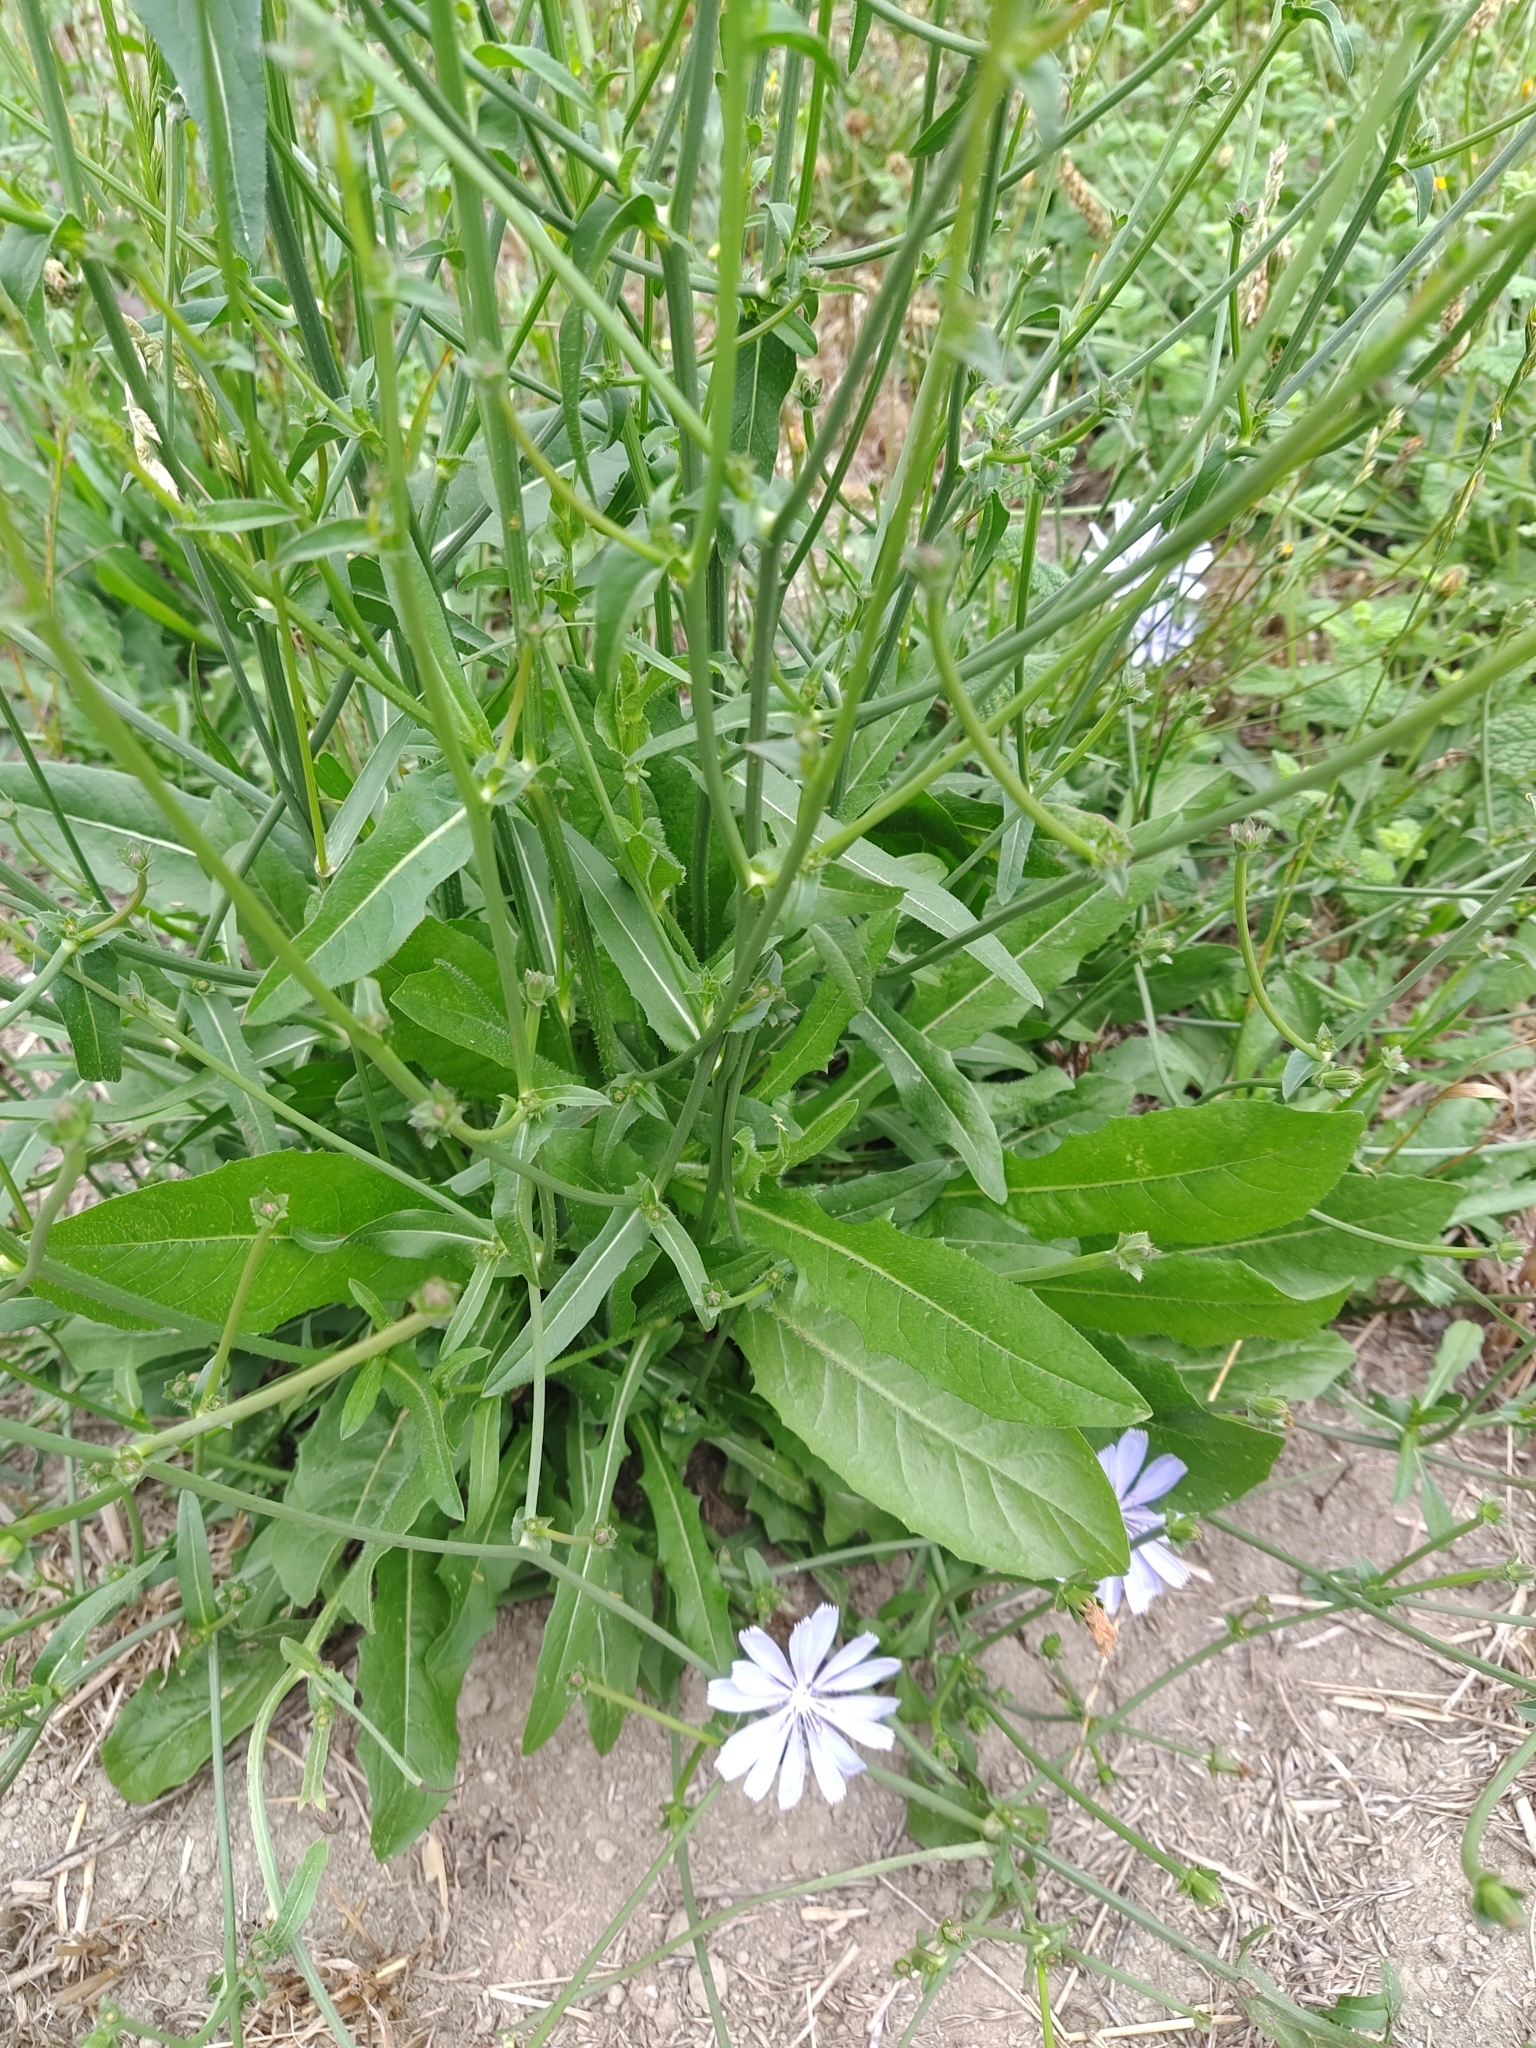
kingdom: Plantae
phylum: Tracheophyta
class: Magnoliopsida
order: Asterales
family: Asteraceae
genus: Cichorium
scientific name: Cichorium intybus
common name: Chicory
